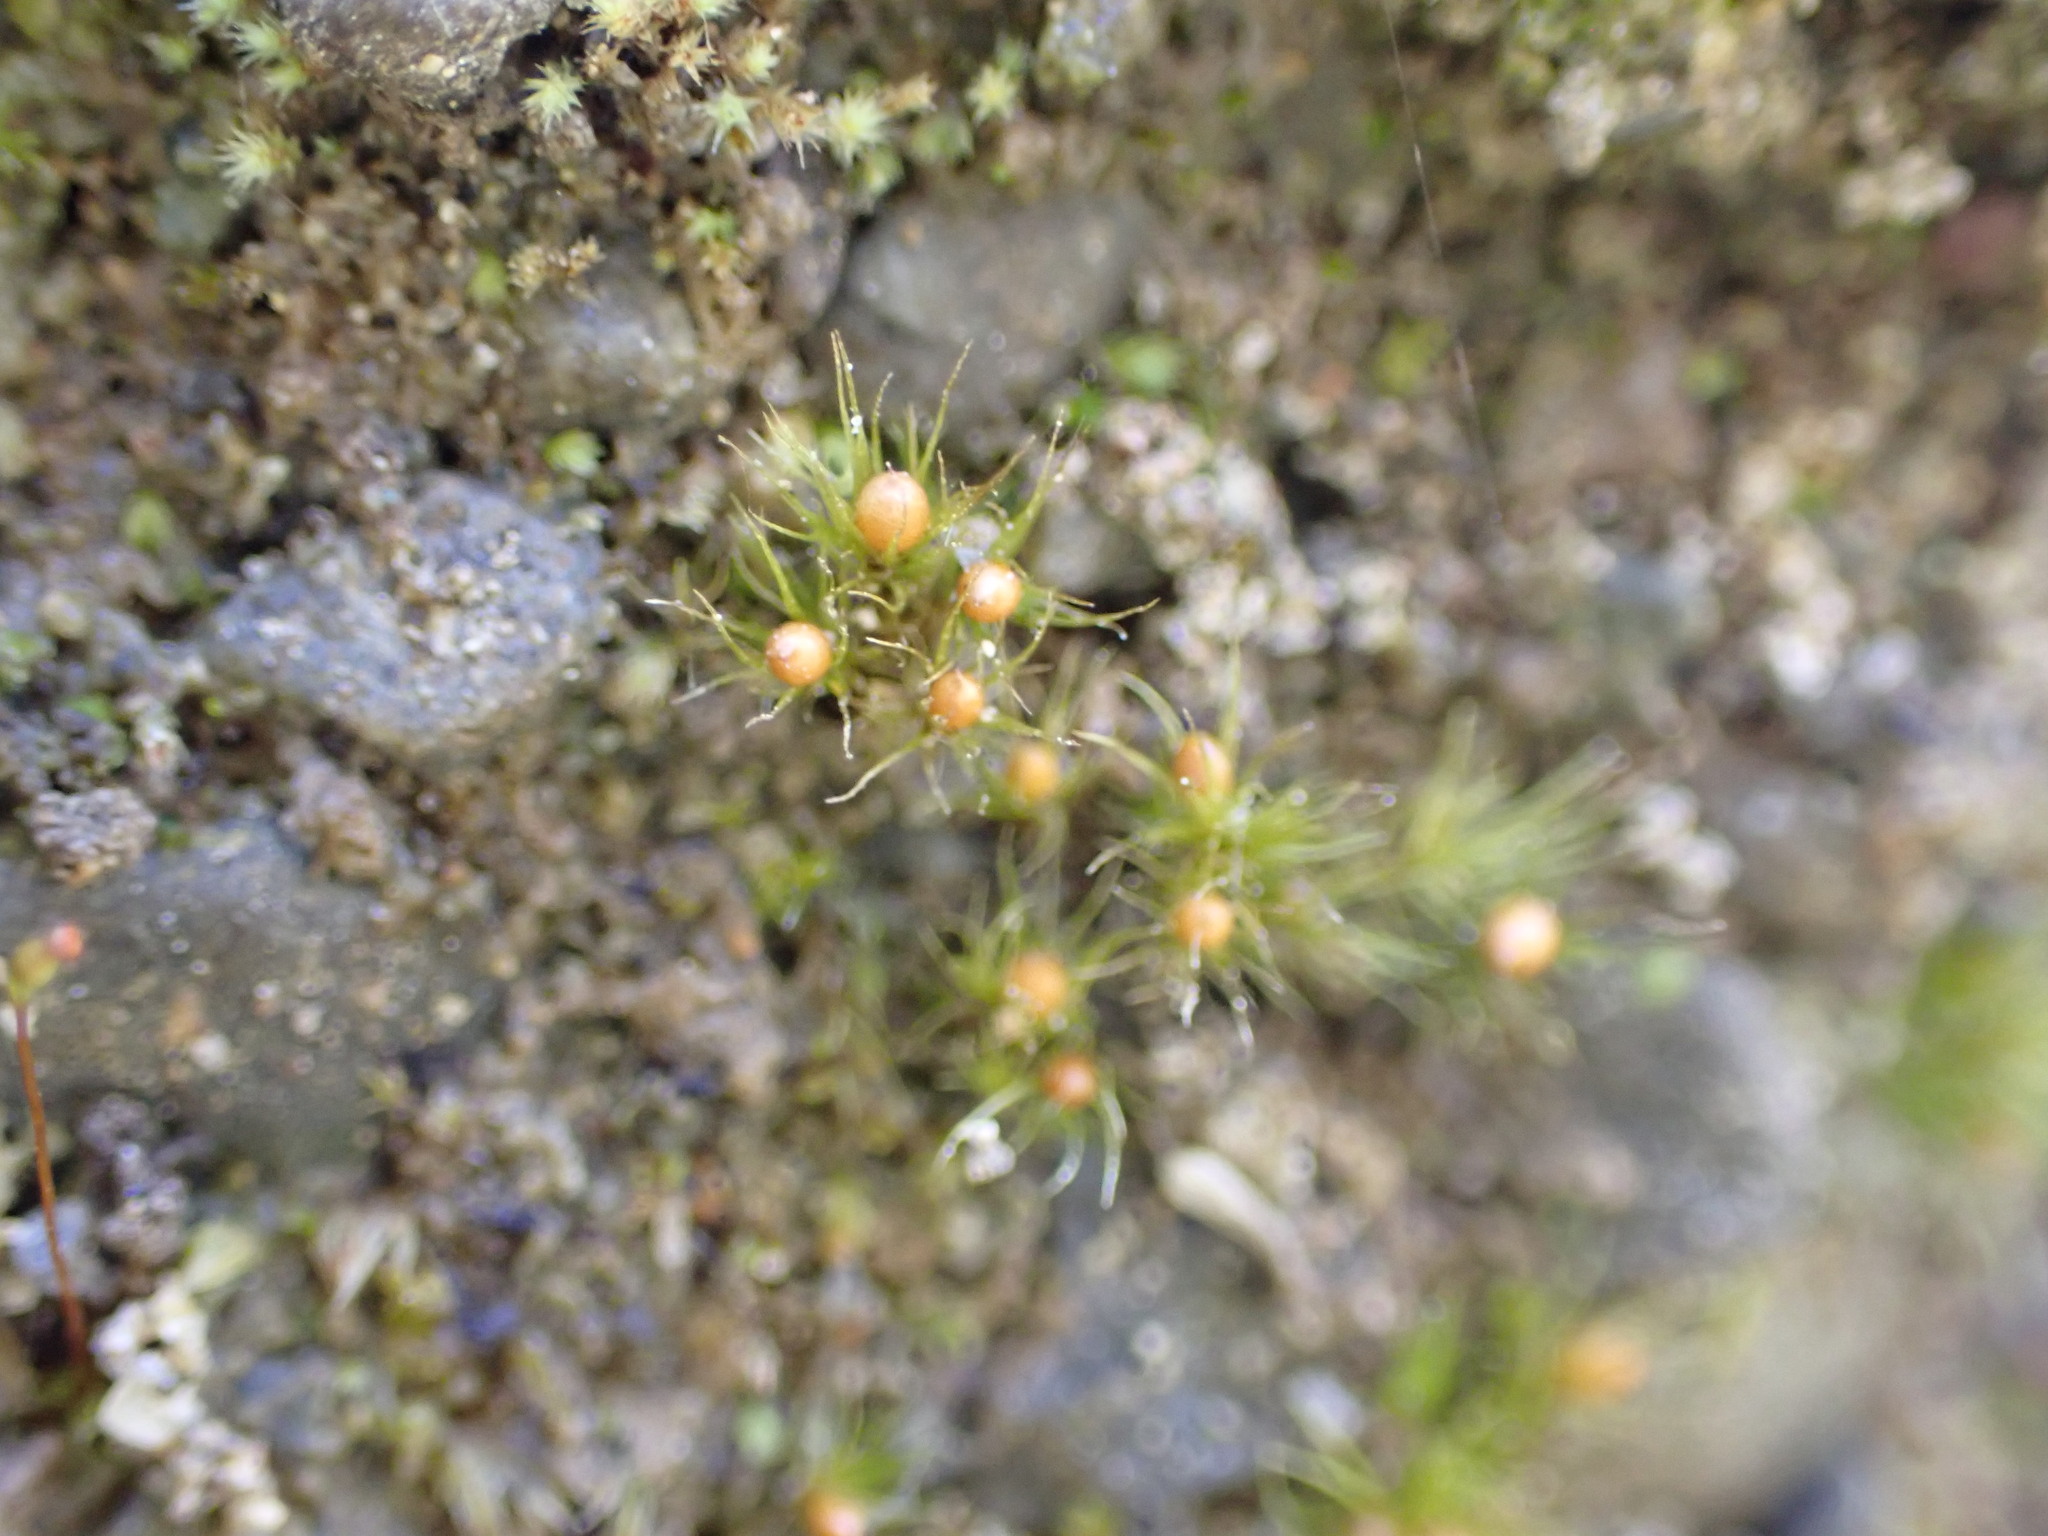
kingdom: Plantae
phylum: Bryophyta
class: Bryopsida
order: Dicranales
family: Ditrichaceae
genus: Pleuridium
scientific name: Pleuridium nervosum
